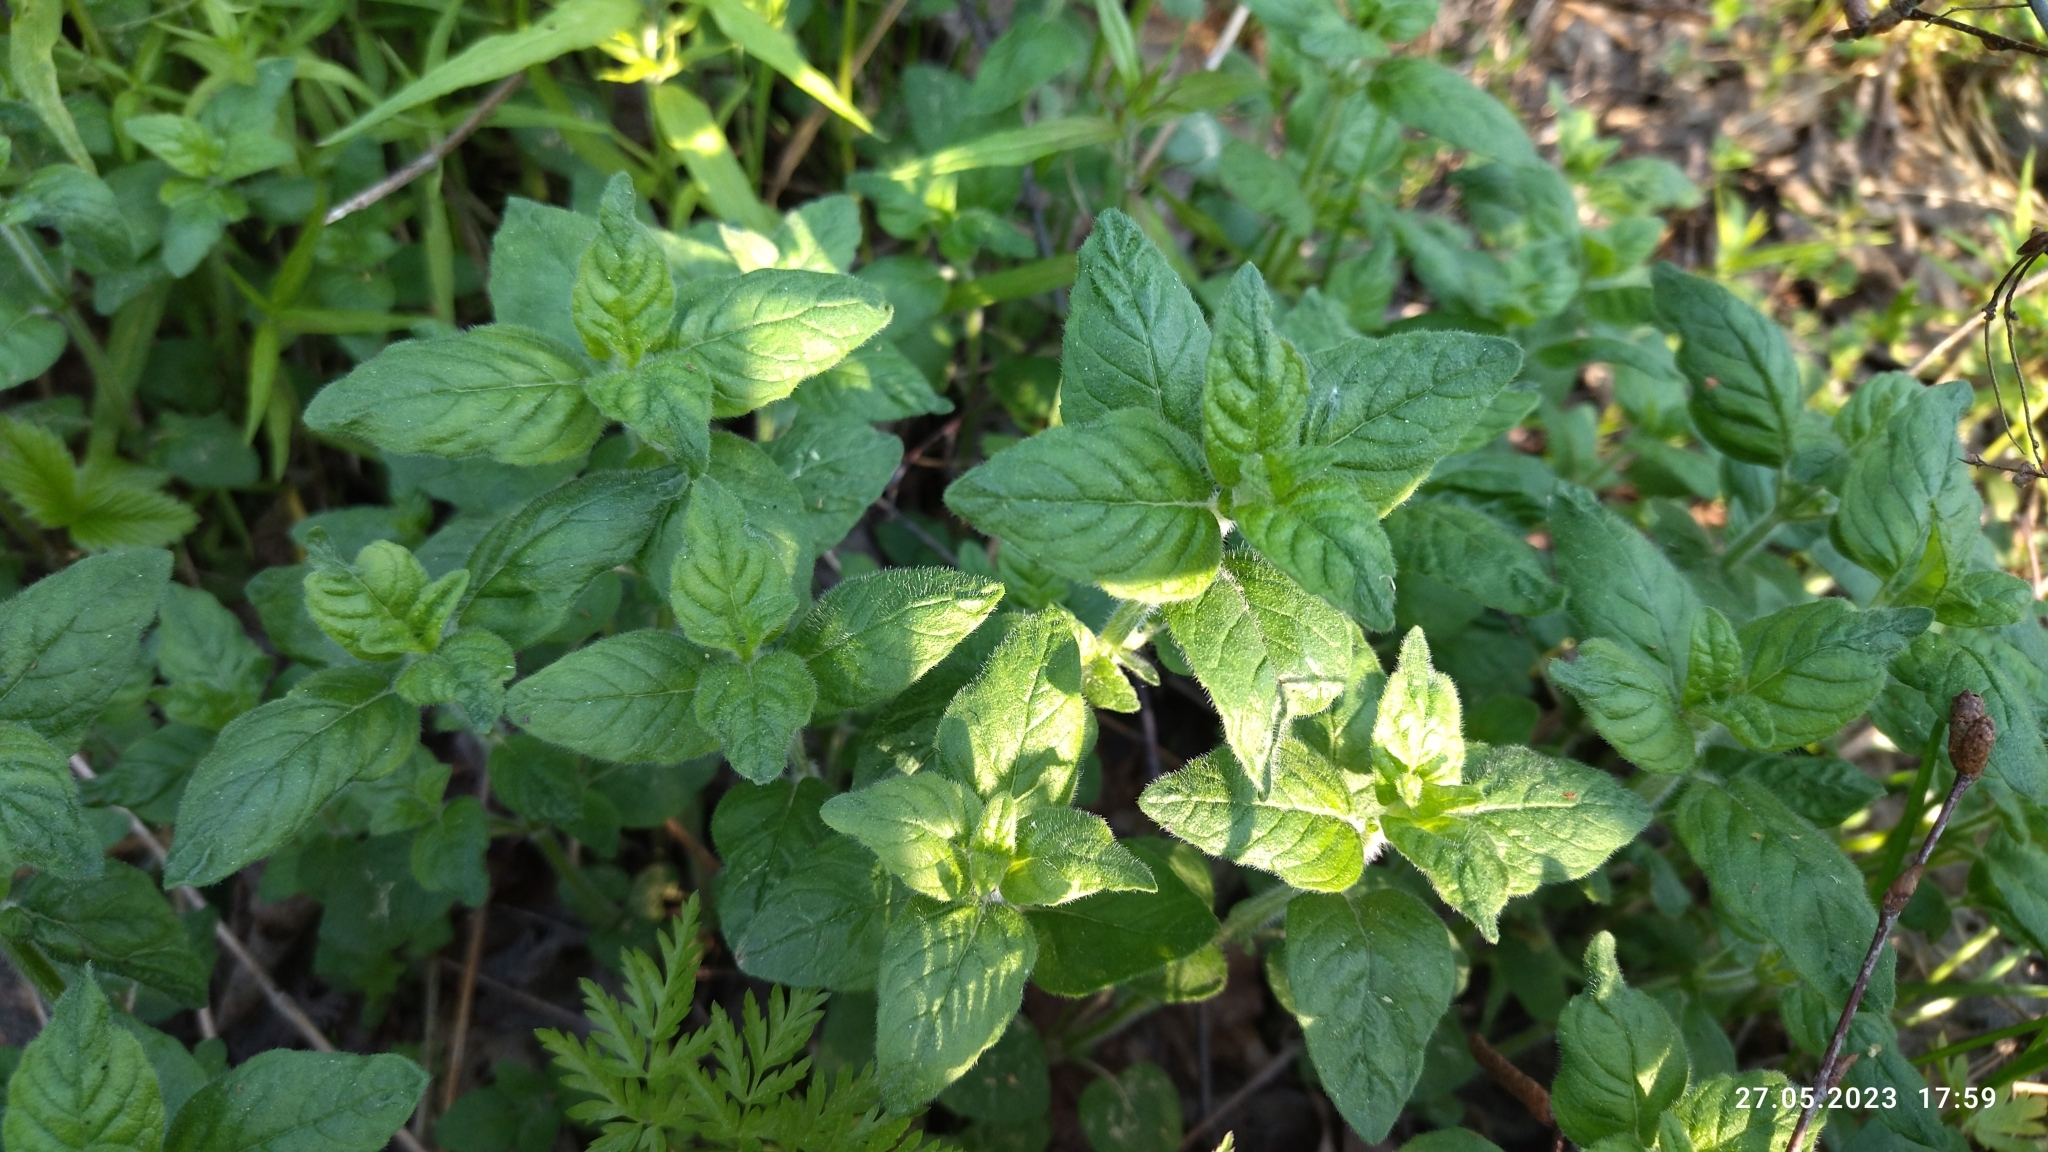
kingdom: Plantae
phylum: Tracheophyta
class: Magnoliopsida
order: Lamiales
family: Lamiaceae
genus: Clinopodium
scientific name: Clinopodium vulgare
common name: Wild basil
